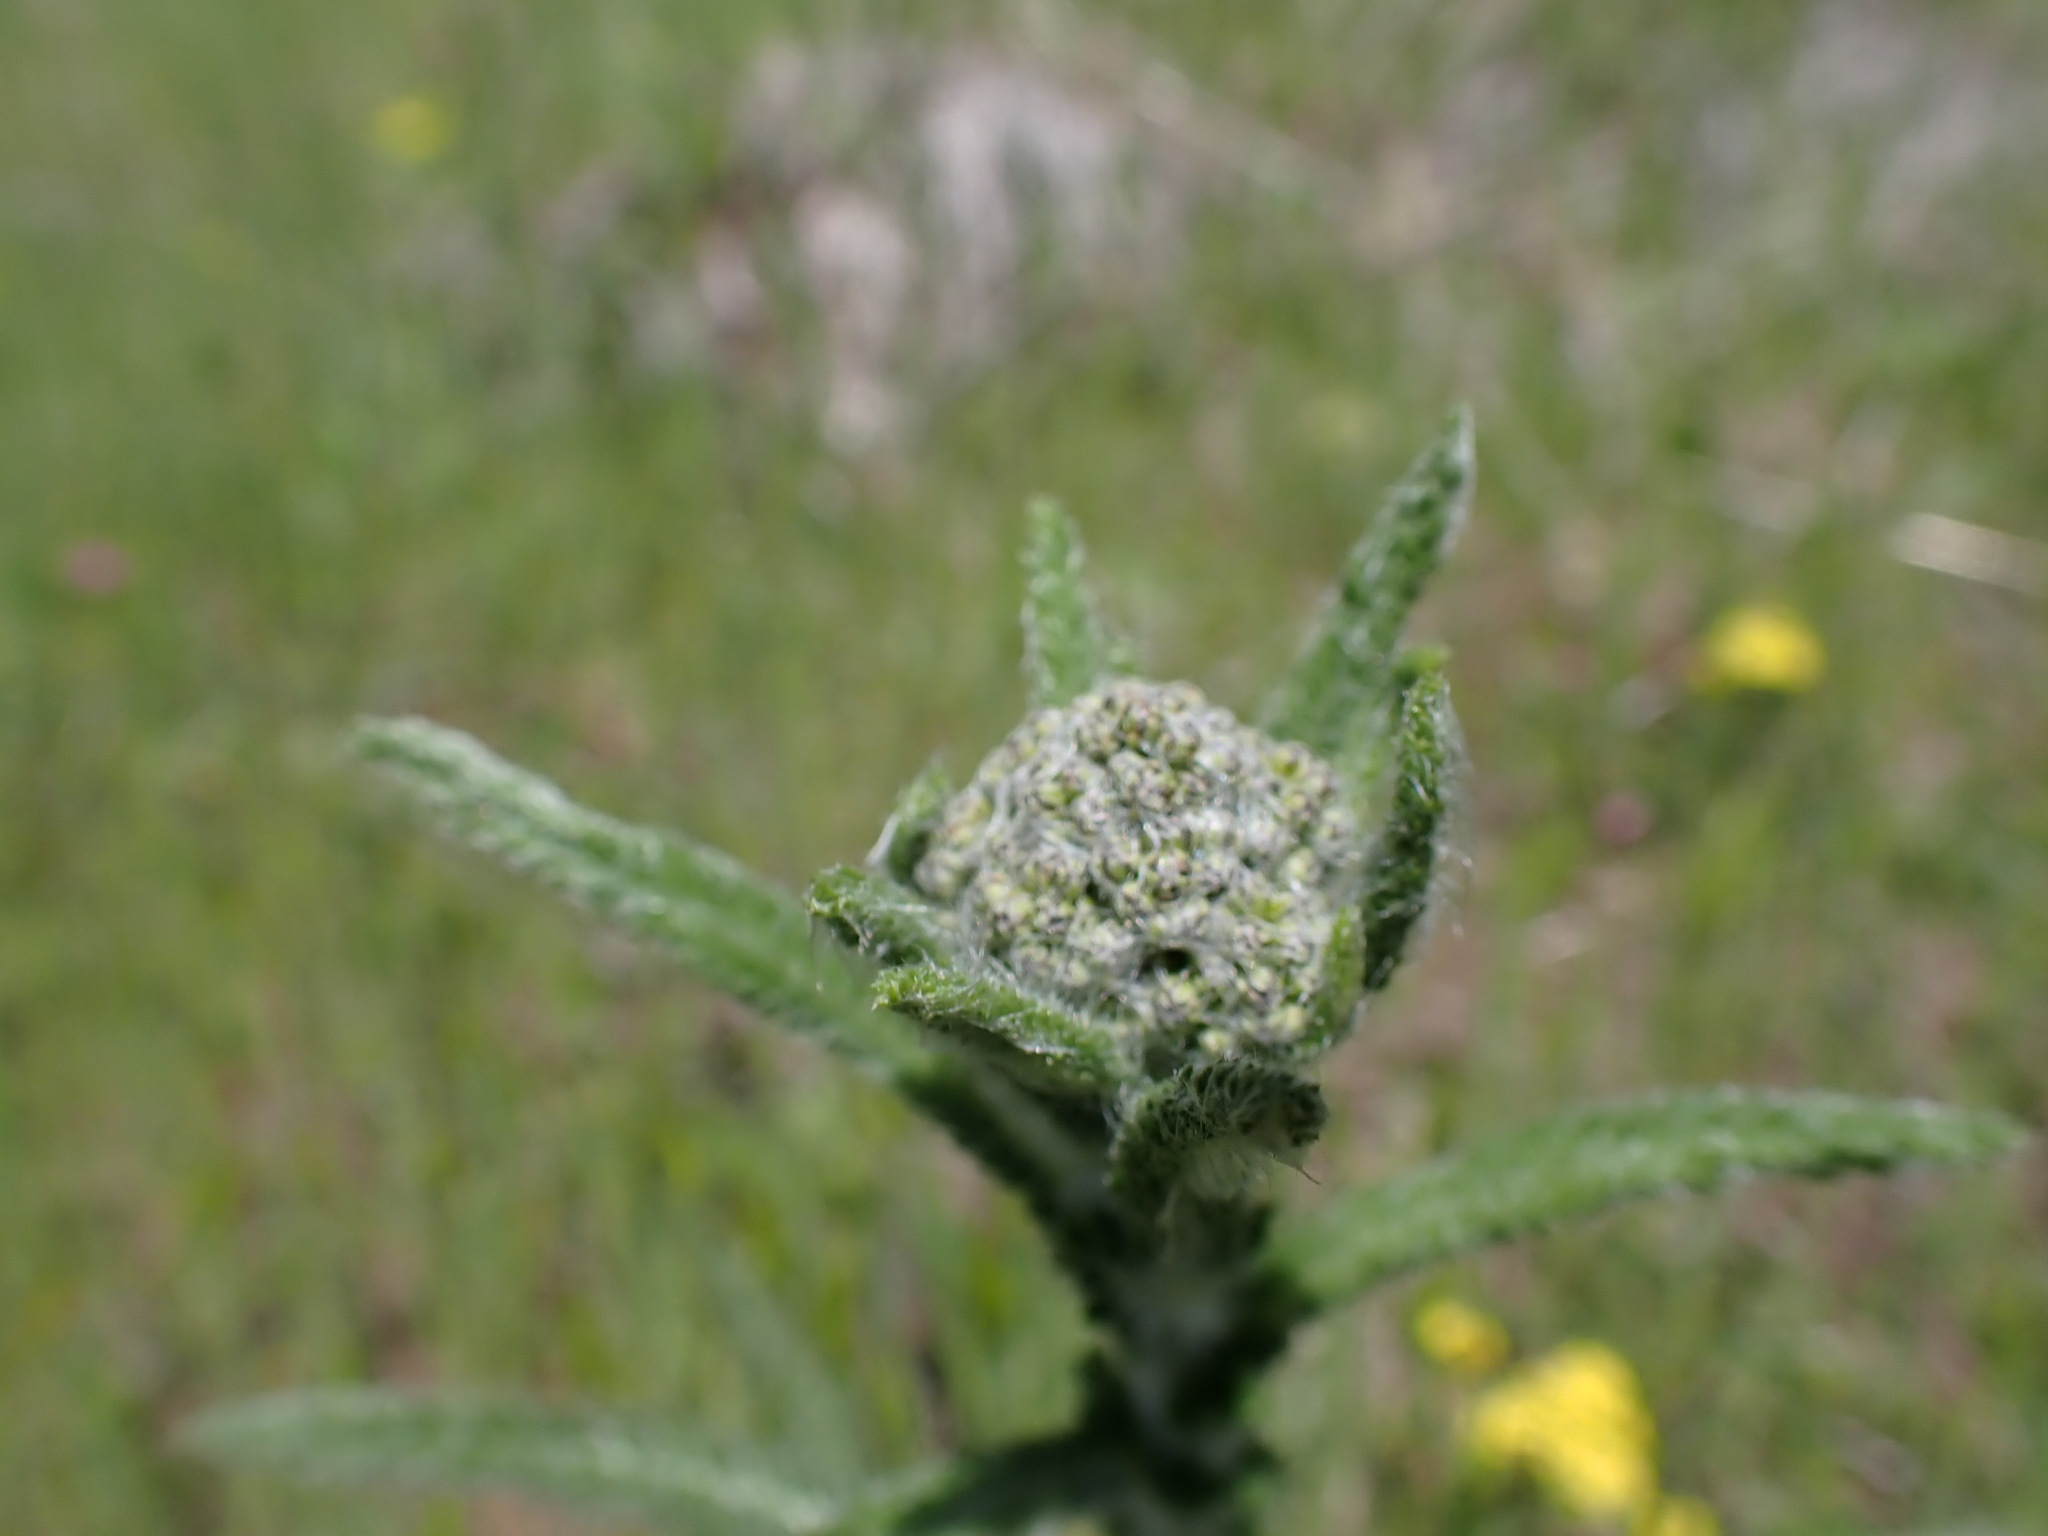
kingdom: Plantae
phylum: Tracheophyta
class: Magnoliopsida
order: Asterales
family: Asteraceae
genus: Achillea
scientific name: Achillea millefolium
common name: Yarrow
